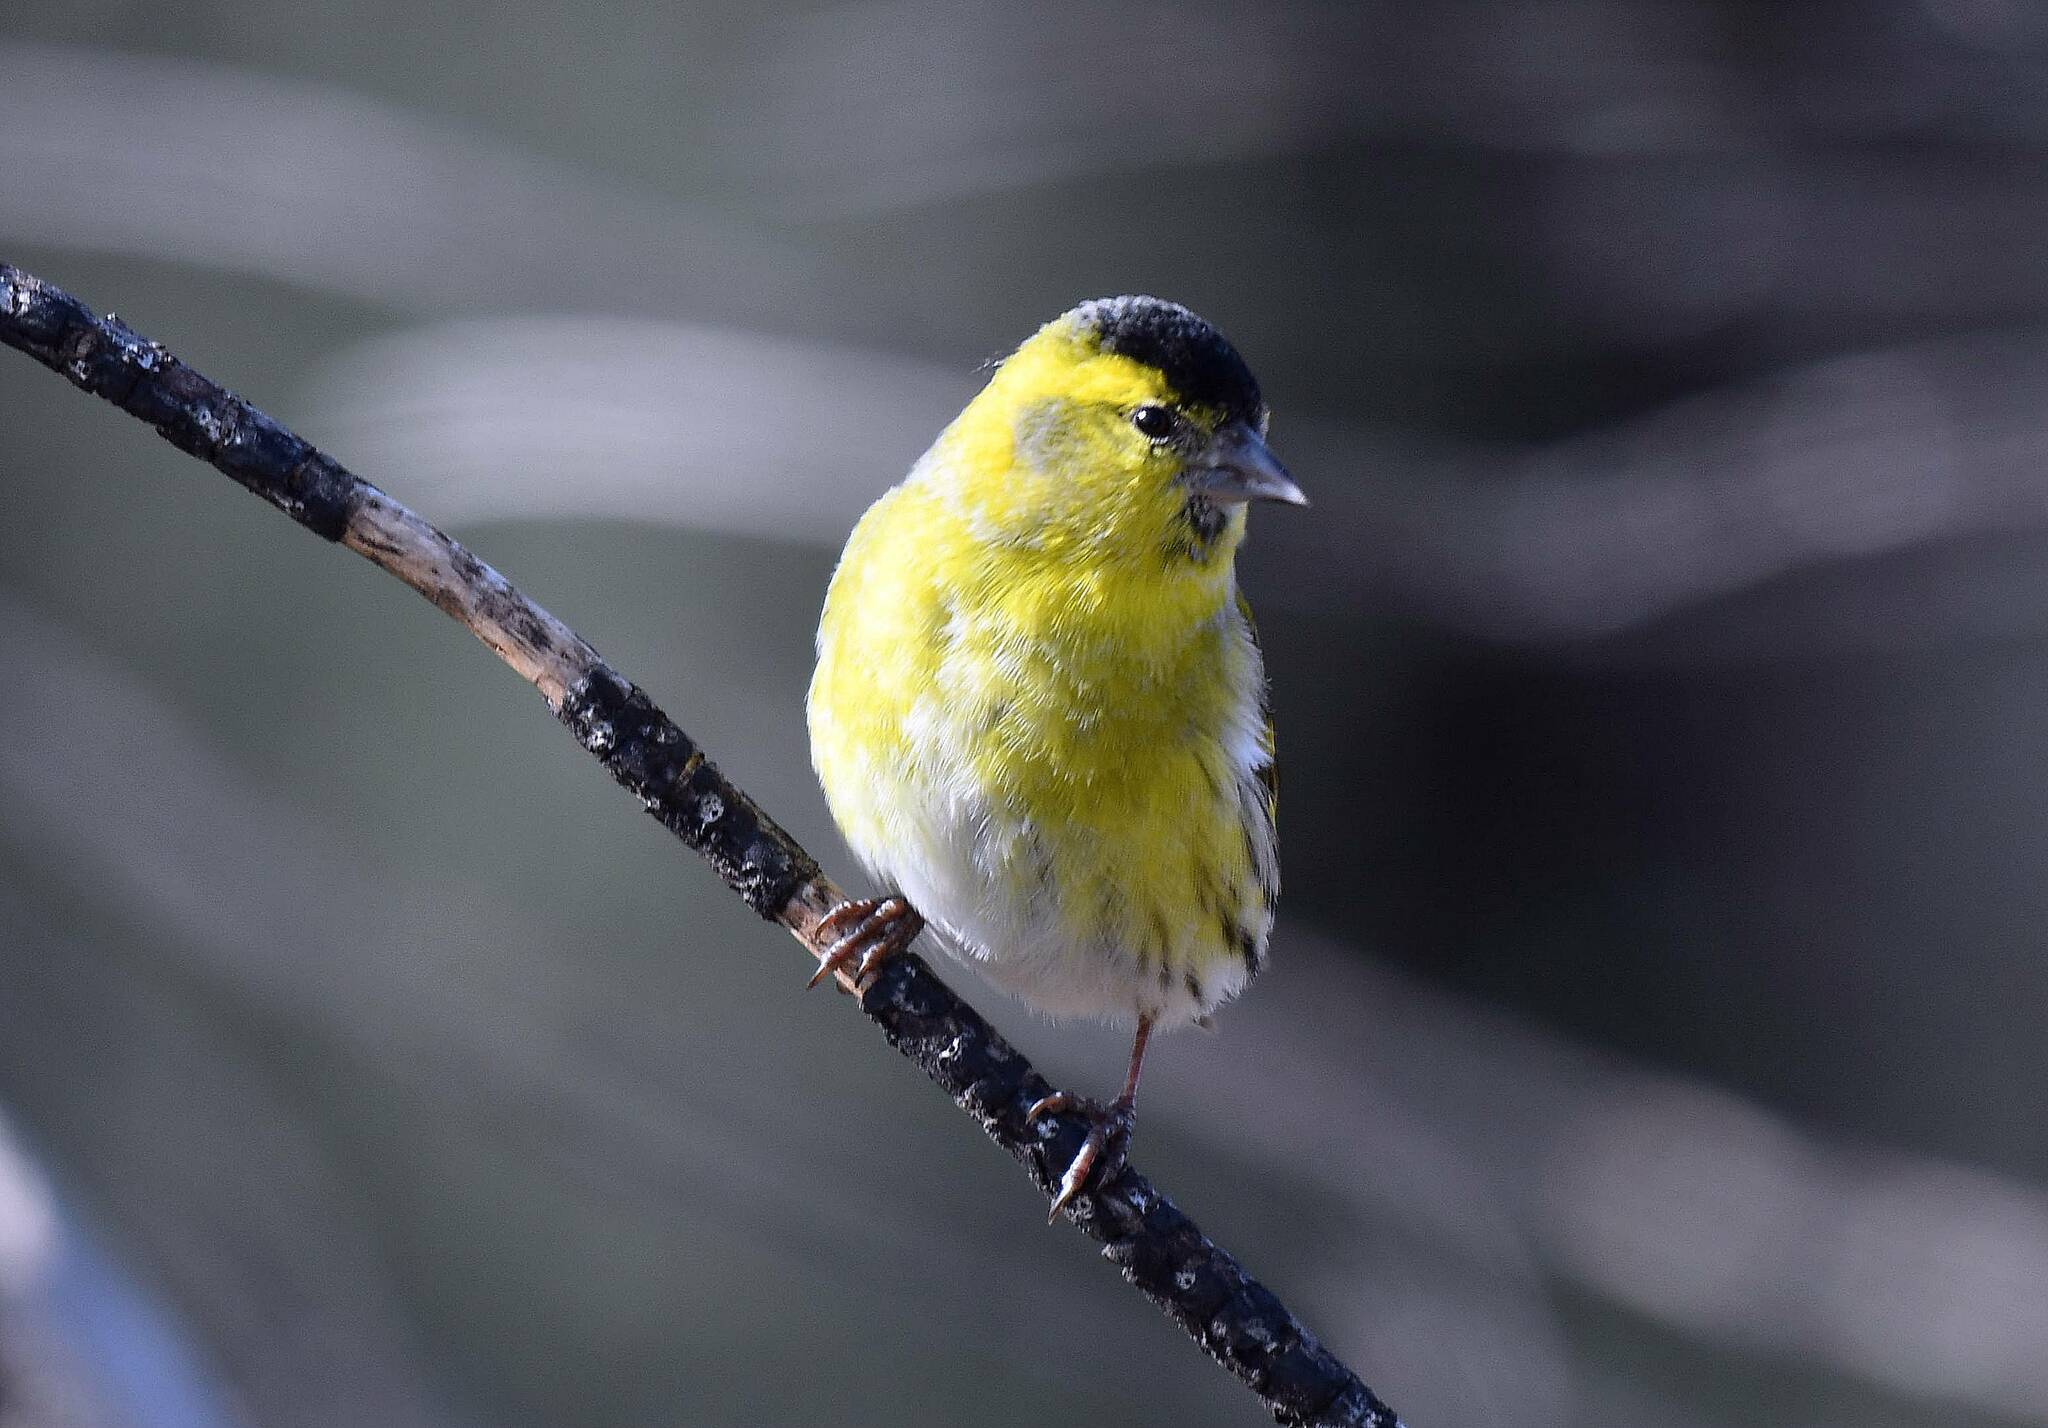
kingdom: Animalia
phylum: Chordata
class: Aves
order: Passeriformes
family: Fringillidae
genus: Spinus
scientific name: Spinus spinus
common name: Eurasian siskin
